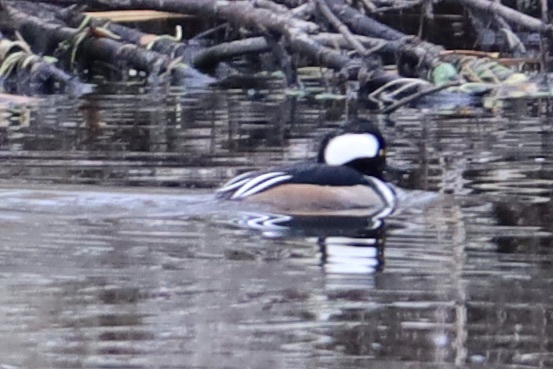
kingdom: Animalia
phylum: Chordata
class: Aves
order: Anseriformes
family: Anatidae
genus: Lophodytes
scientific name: Lophodytes cucullatus
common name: Hooded merganser
